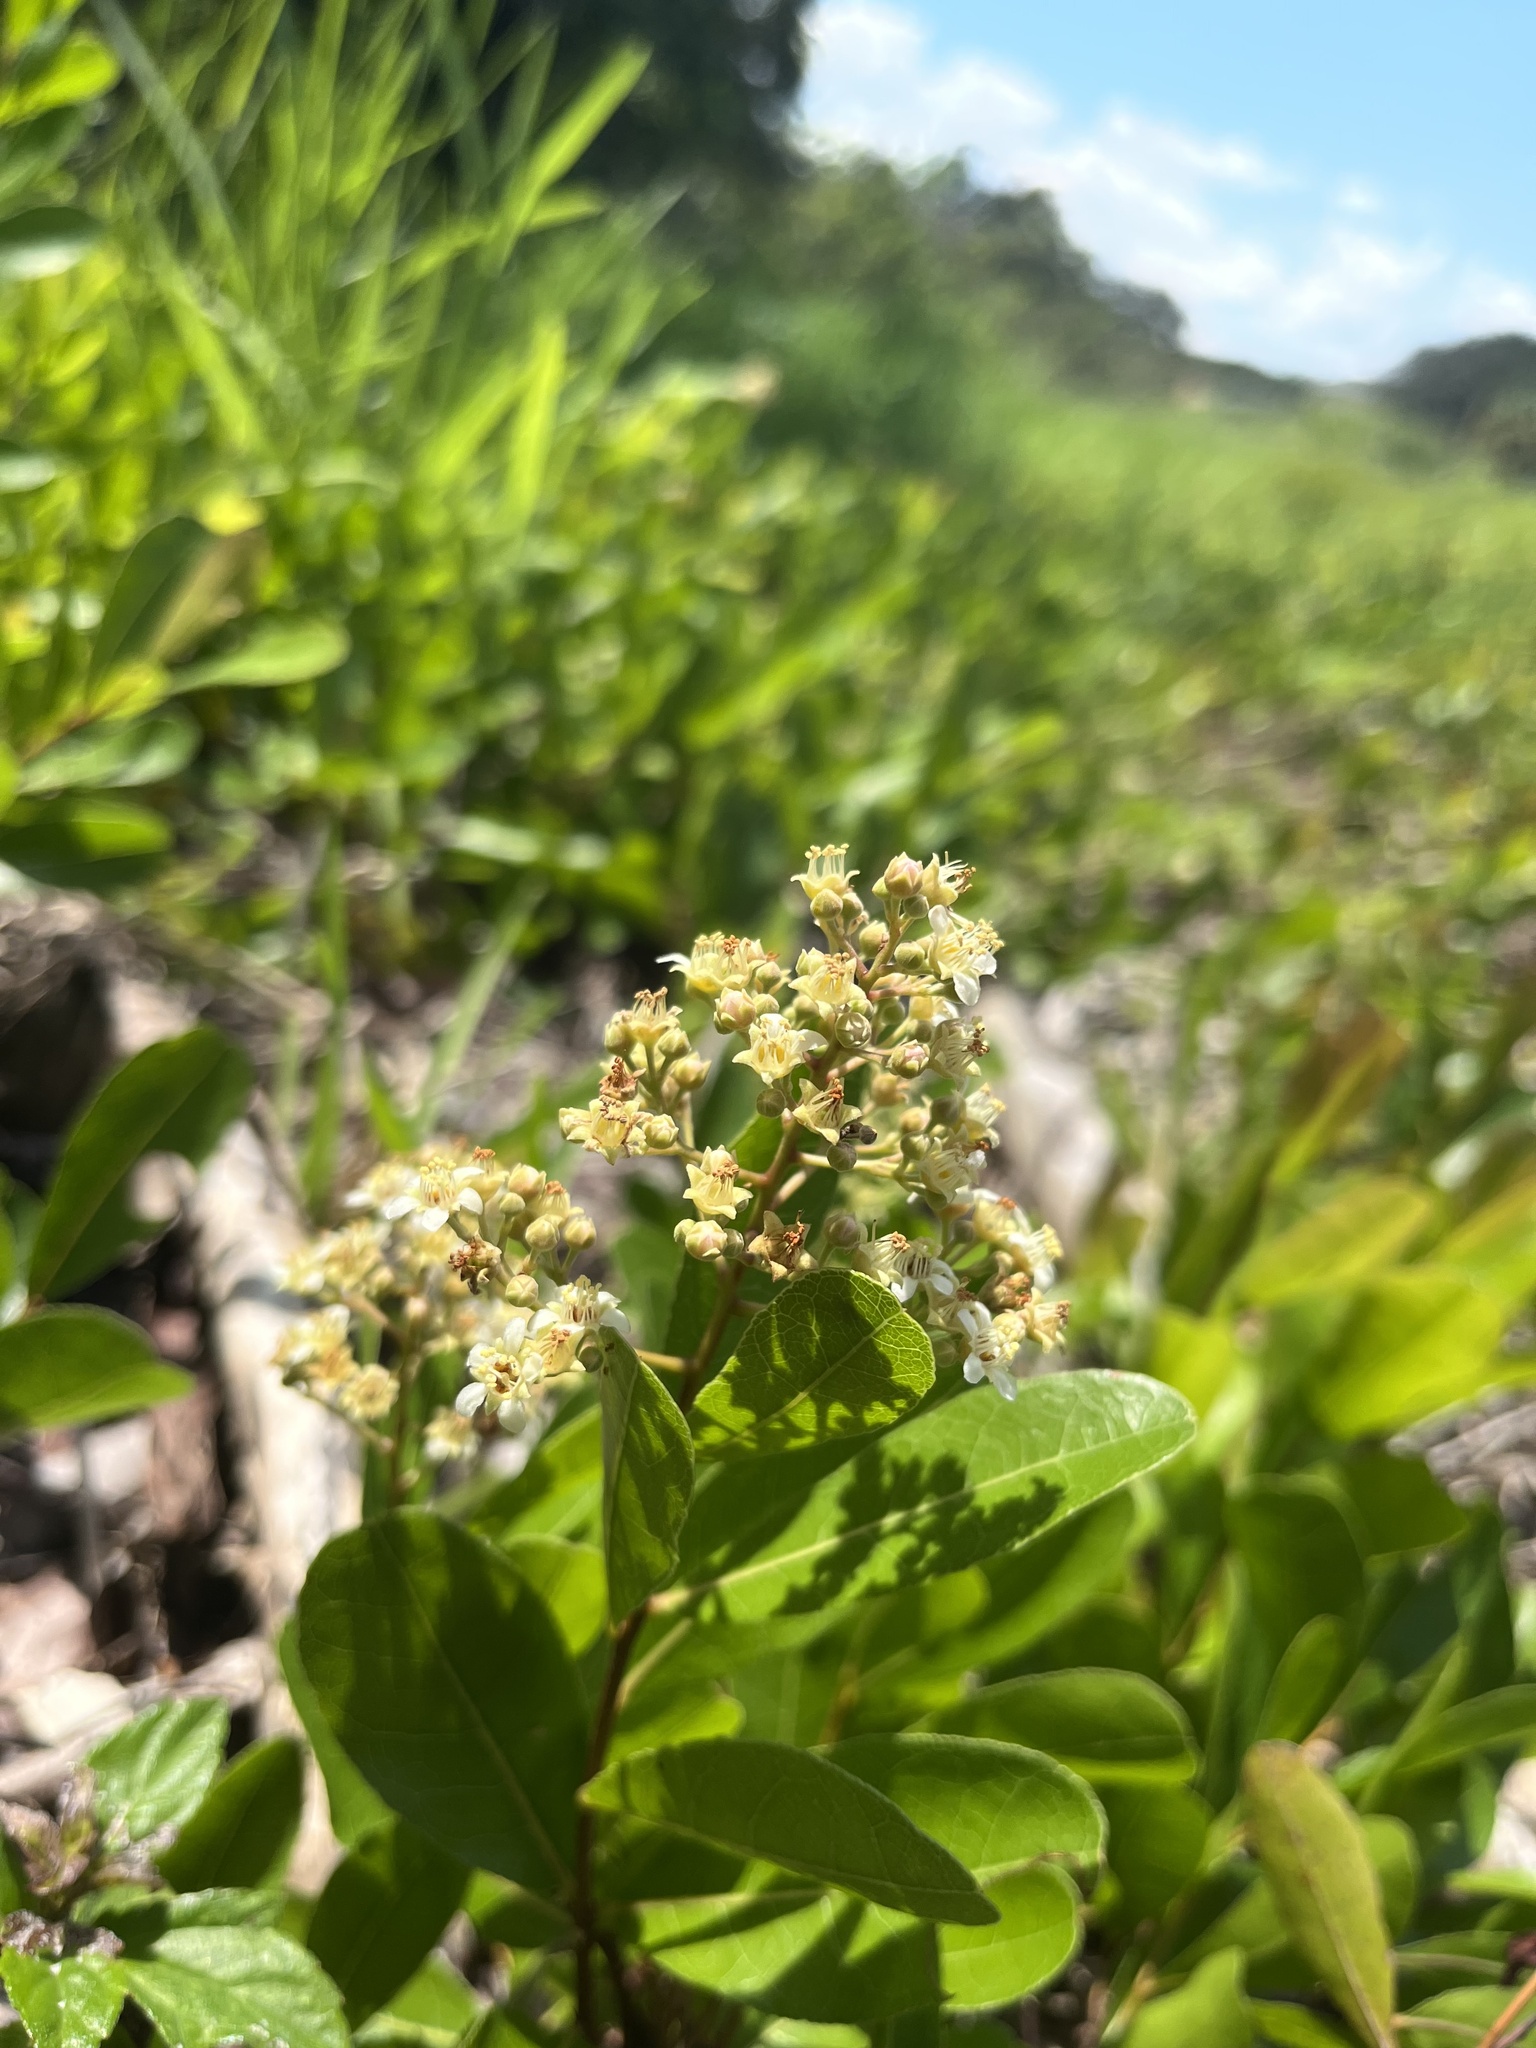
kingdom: Plantae
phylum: Tracheophyta
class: Magnoliopsida
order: Malpighiales
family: Chrysobalanaceae
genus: Geobalanus
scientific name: Geobalanus oblongifolius
